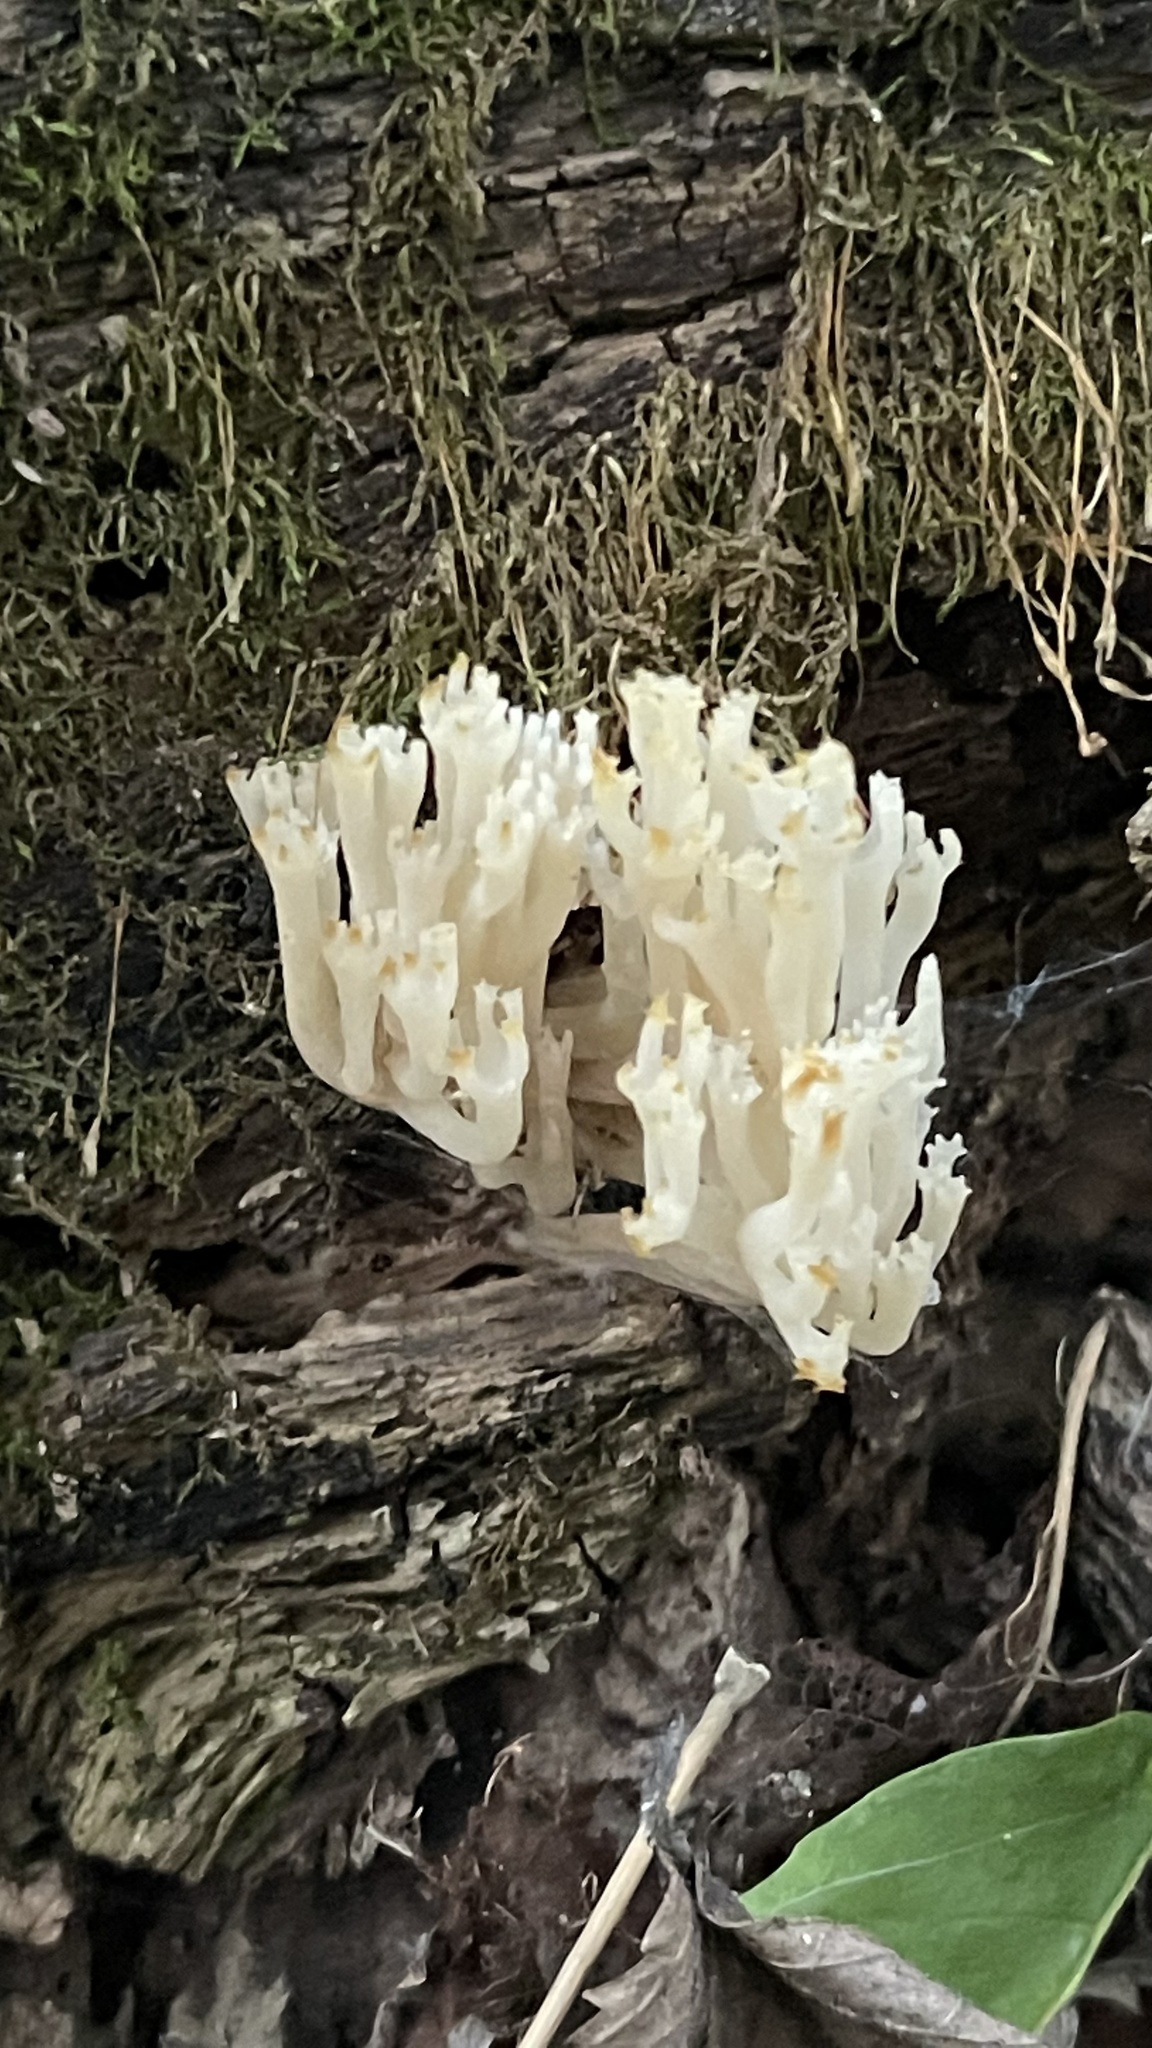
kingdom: Fungi
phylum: Basidiomycota
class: Agaricomycetes
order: Russulales
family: Auriscalpiaceae
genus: Artomyces
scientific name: Artomyces pyxidatus
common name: Crown-tipped coral fungus
